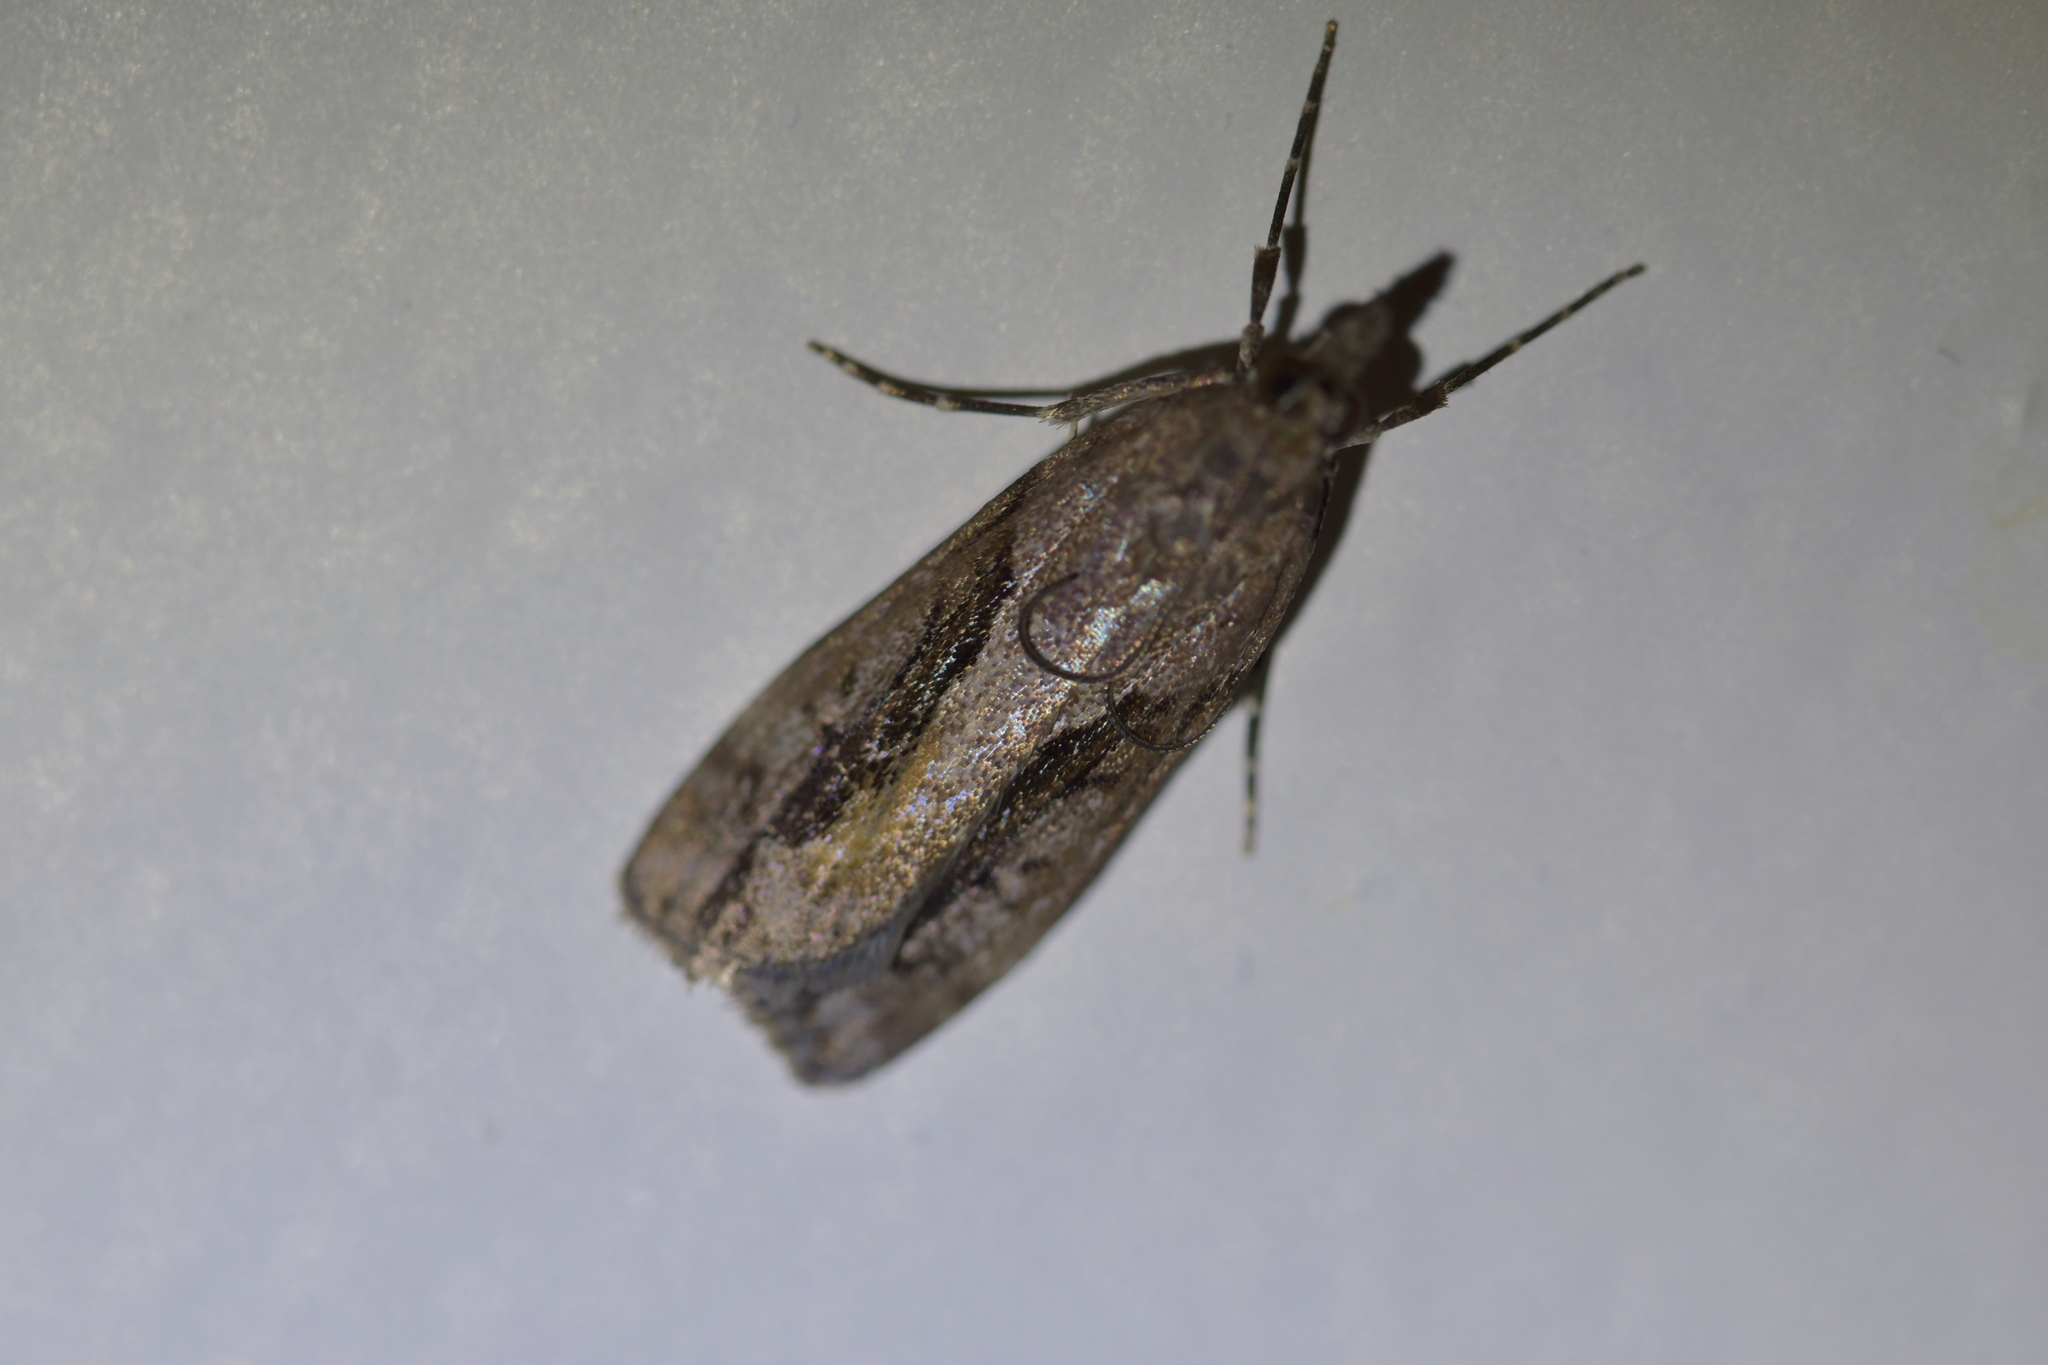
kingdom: Animalia
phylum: Arthropoda
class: Insecta
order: Lepidoptera
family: Crambidae
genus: Eudonia
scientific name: Eudonia submarginalis
